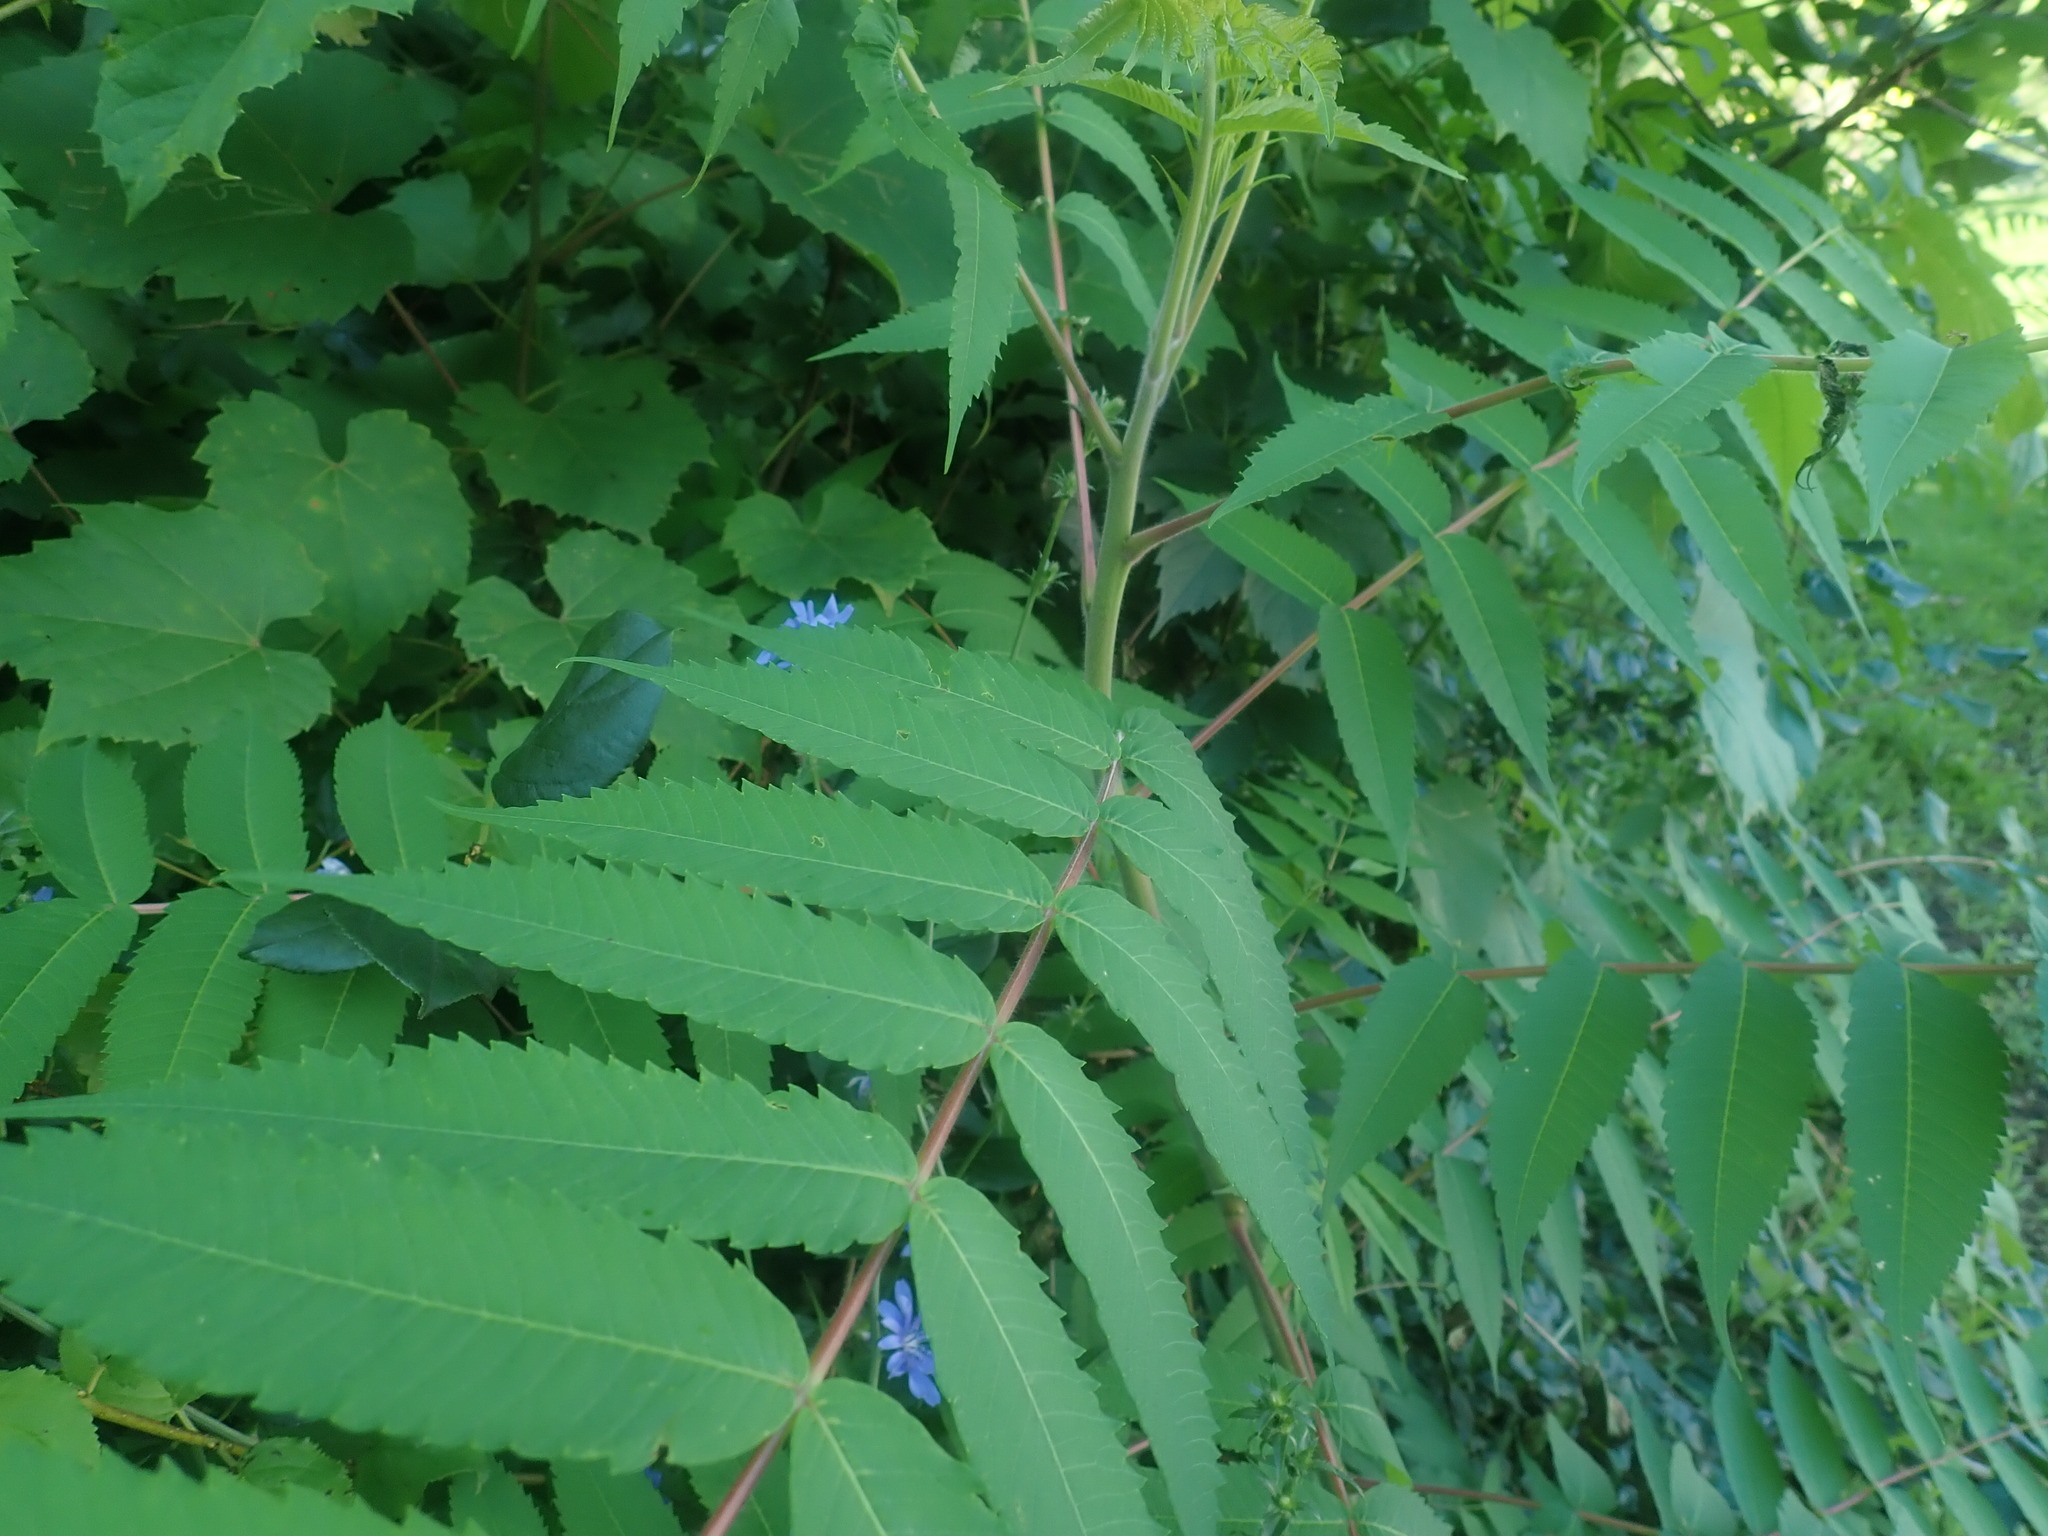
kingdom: Plantae
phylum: Tracheophyta
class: Magnoliopsida
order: Sapindales
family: Anacardiaceae
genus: Rhus
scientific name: Rhus typhina
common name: Staghorn sumac
